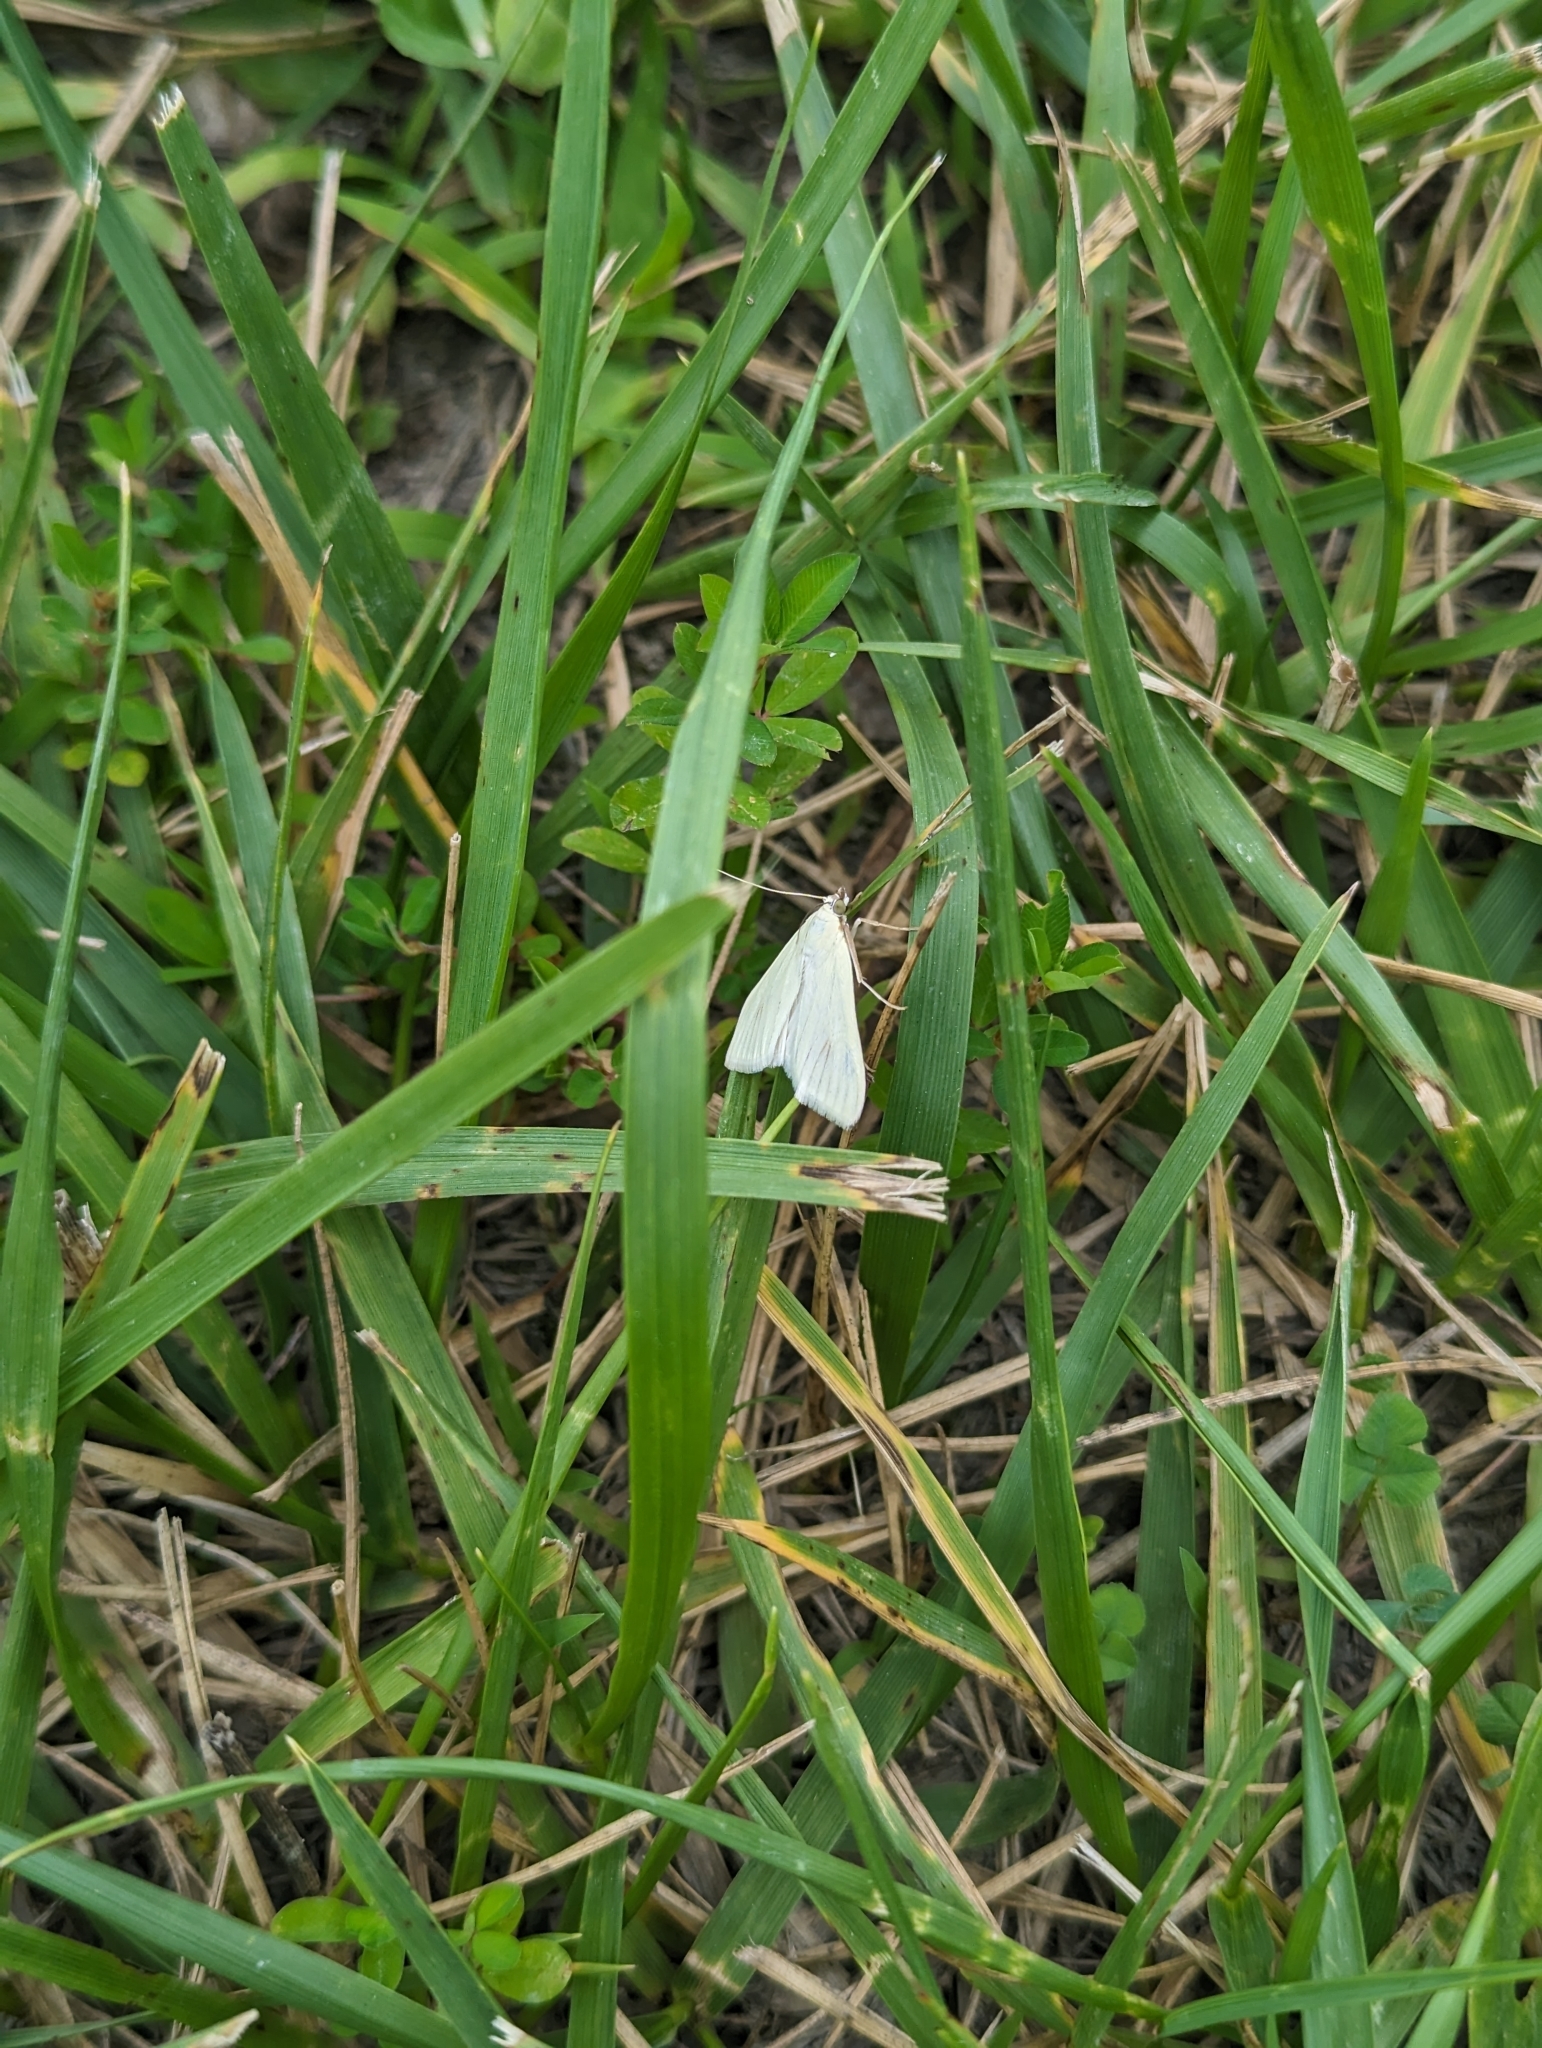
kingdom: Animalia
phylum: Arthropoda
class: Insecta
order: Lepidoptera
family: Crambidae
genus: Sitochroa
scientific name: Sitochroa palealis
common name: Greenish-yellow sitochroa moth
